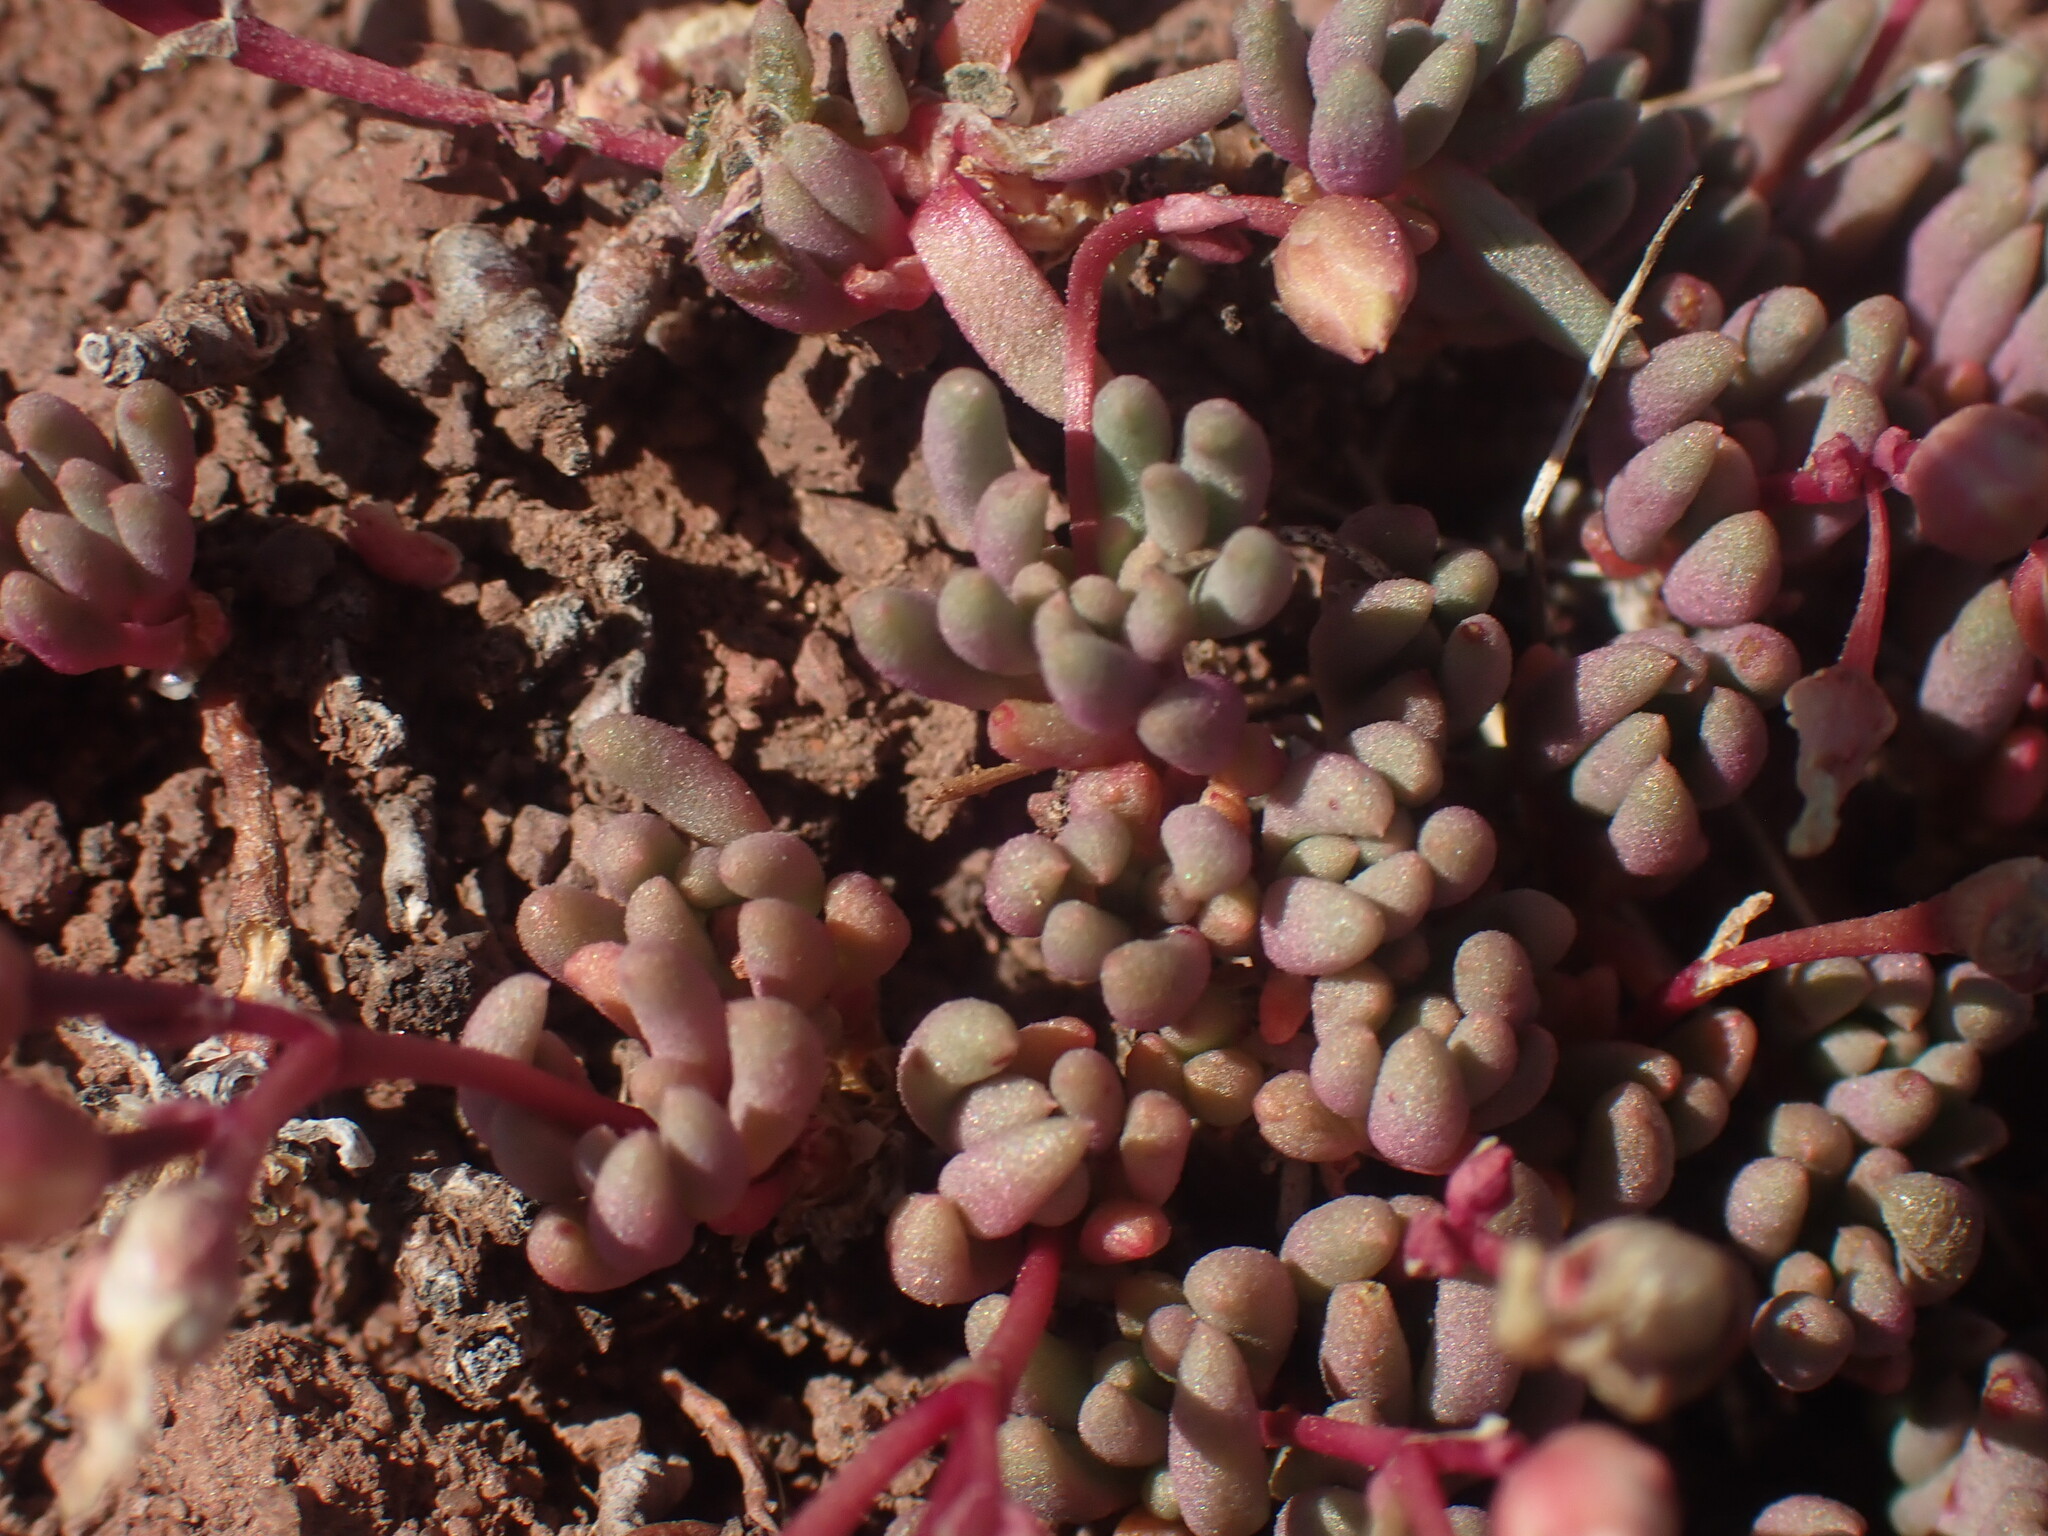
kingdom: Plantae
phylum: Tracheophyta
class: Magnoliopsida
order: Caryophyllales
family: Montiaceae
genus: Phemeranthus
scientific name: Phemeranthus sediformis
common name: Okanogan fameflower
